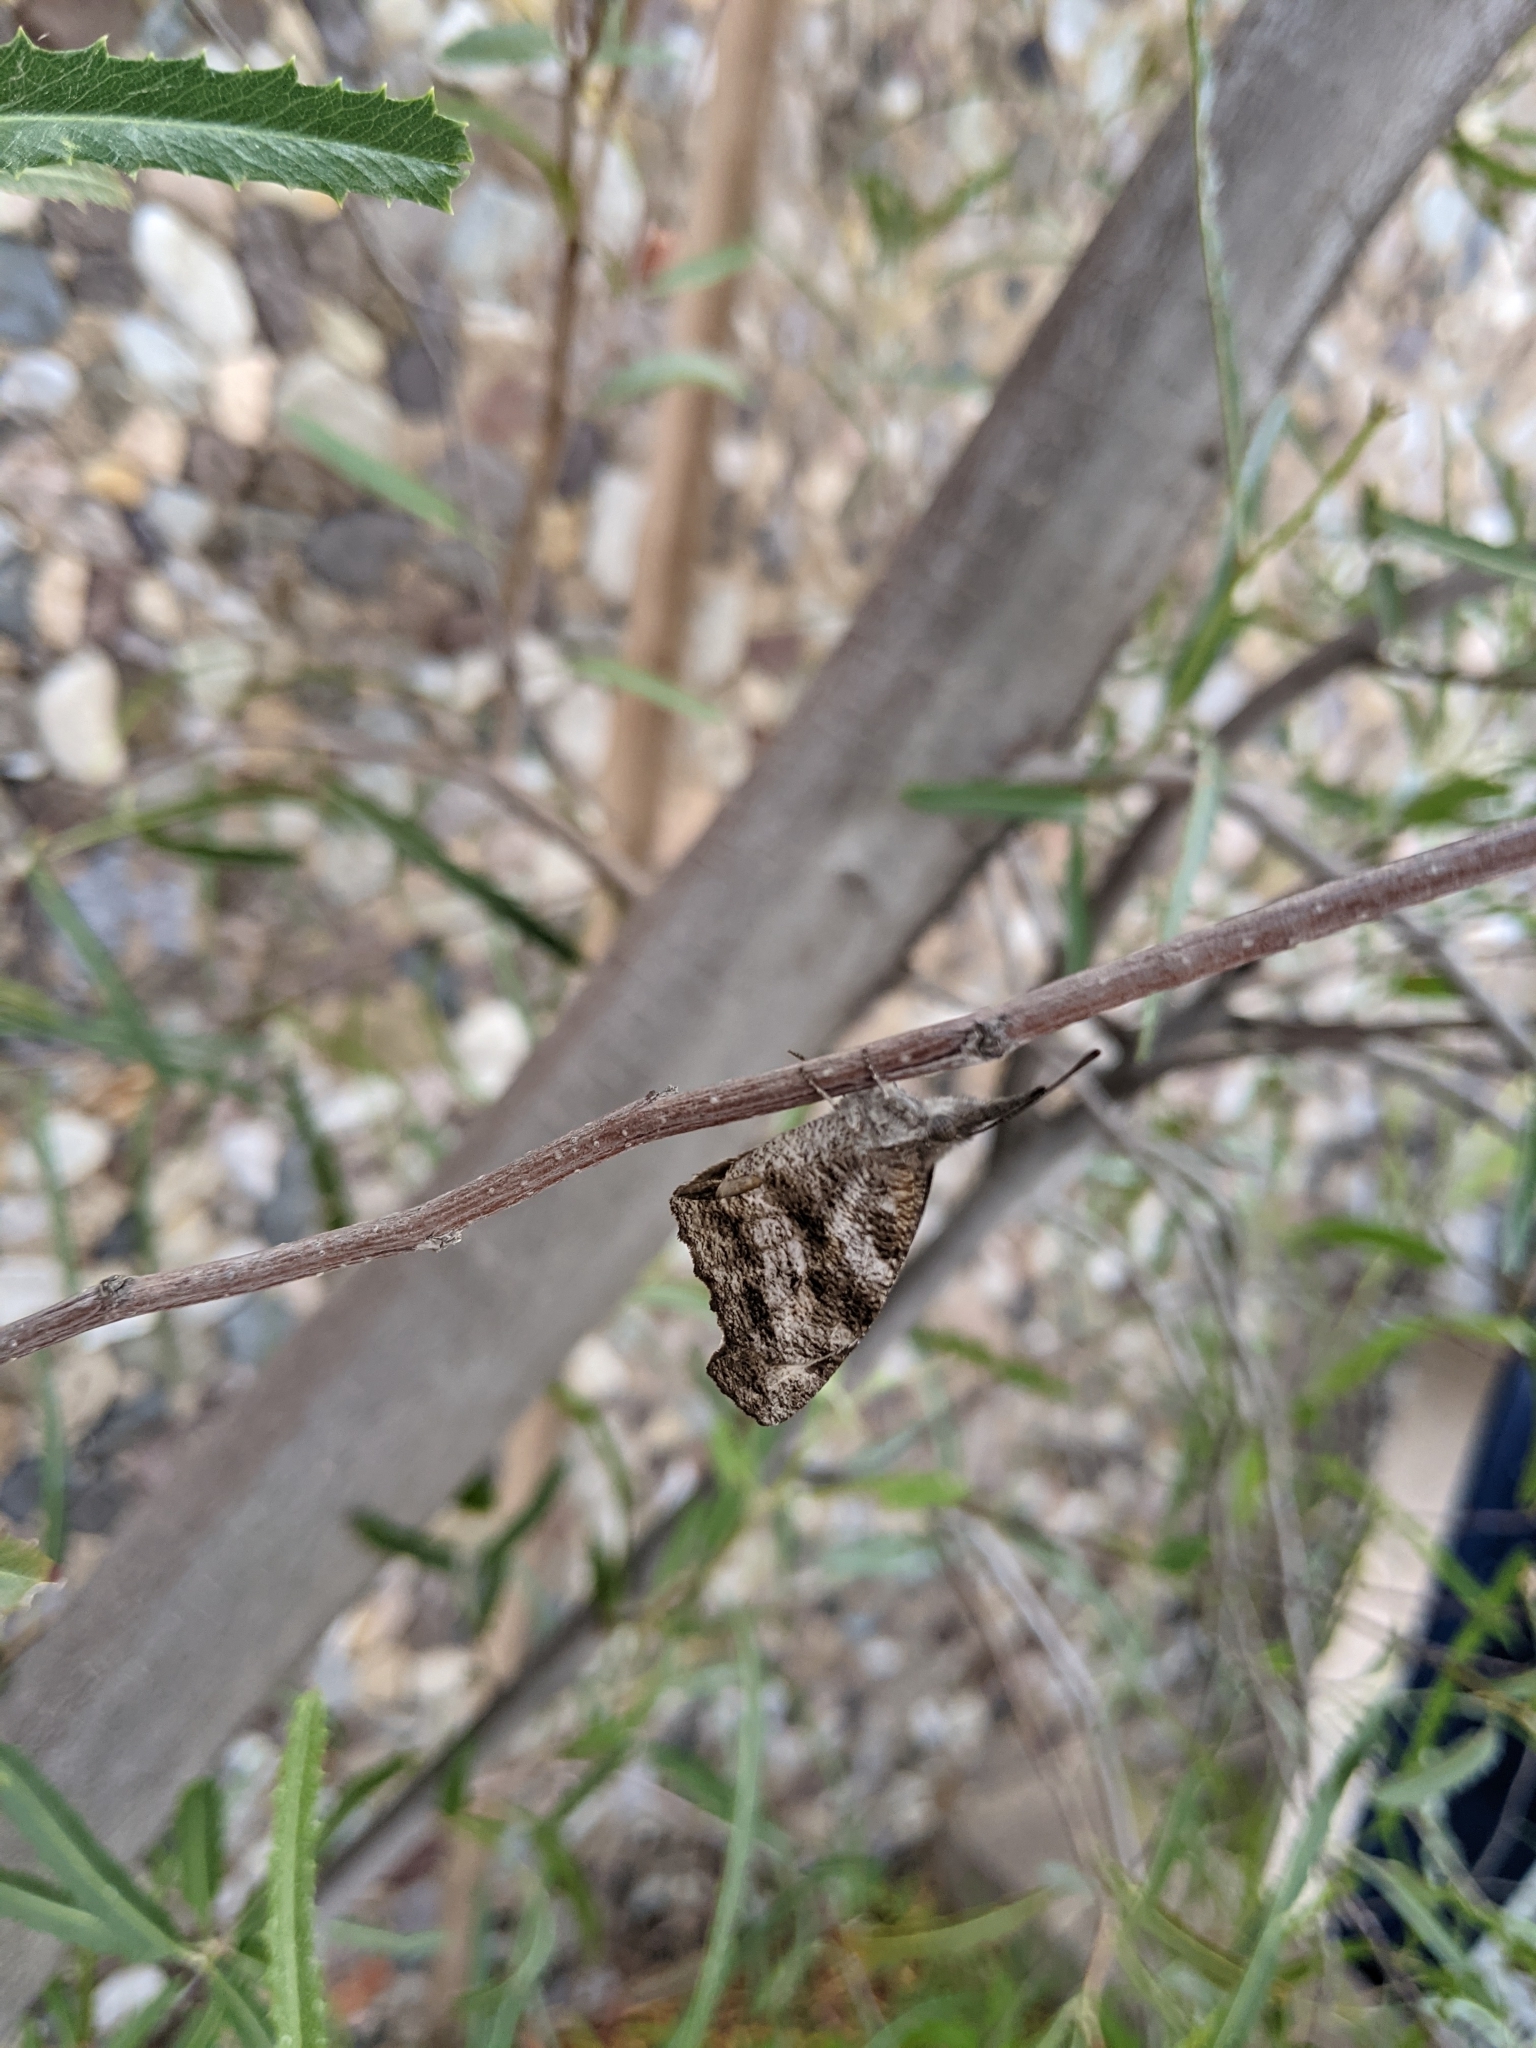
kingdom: Animalia
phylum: Arthropoda
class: Insecta
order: Lepidoptera
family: Nymphalidae
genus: Libytheana
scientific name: Libytheana carinenta
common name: American snout
